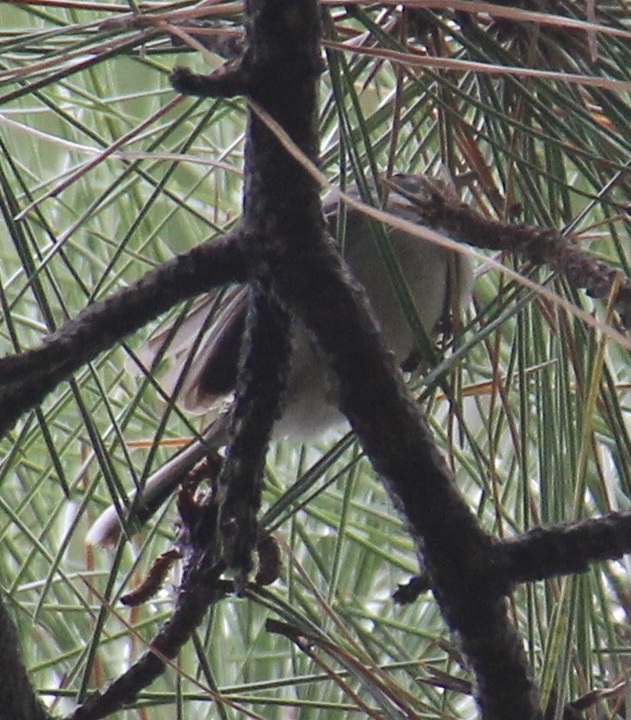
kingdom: Animalia
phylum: Chordata
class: Aves
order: Passeriformes
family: Polioptilidae
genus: Polioptila
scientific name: Polioptila caerulea
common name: Blue-gray gnatcatcher
